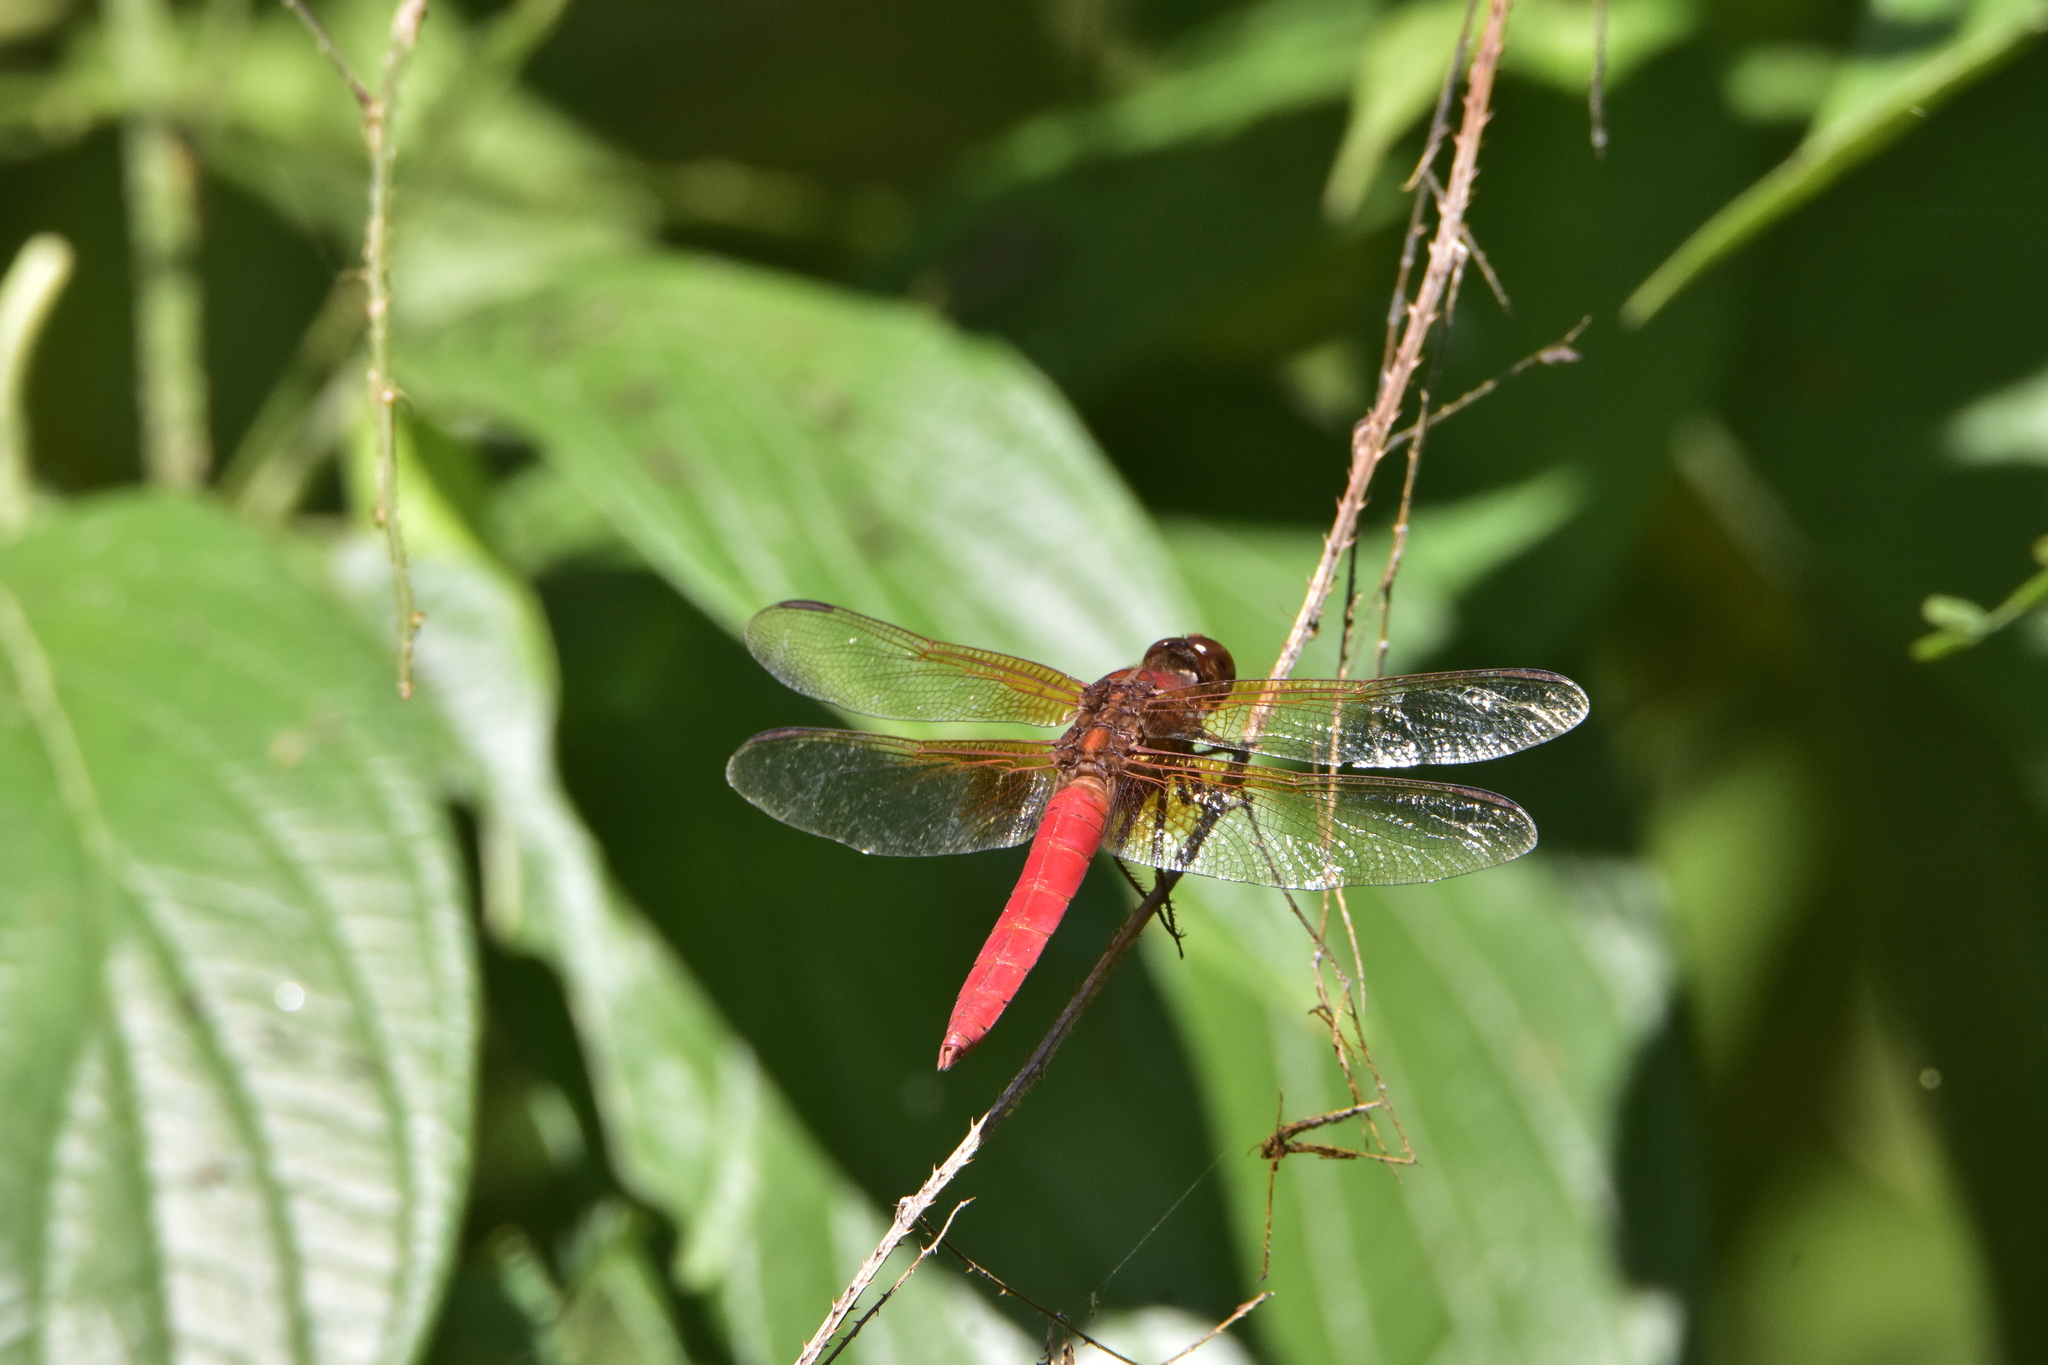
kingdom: Animalia
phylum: Arthropoda
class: Insecta
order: Odonata
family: Libellulidae
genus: Libellula
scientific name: Libellula croceipennis
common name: Neon skimmer
